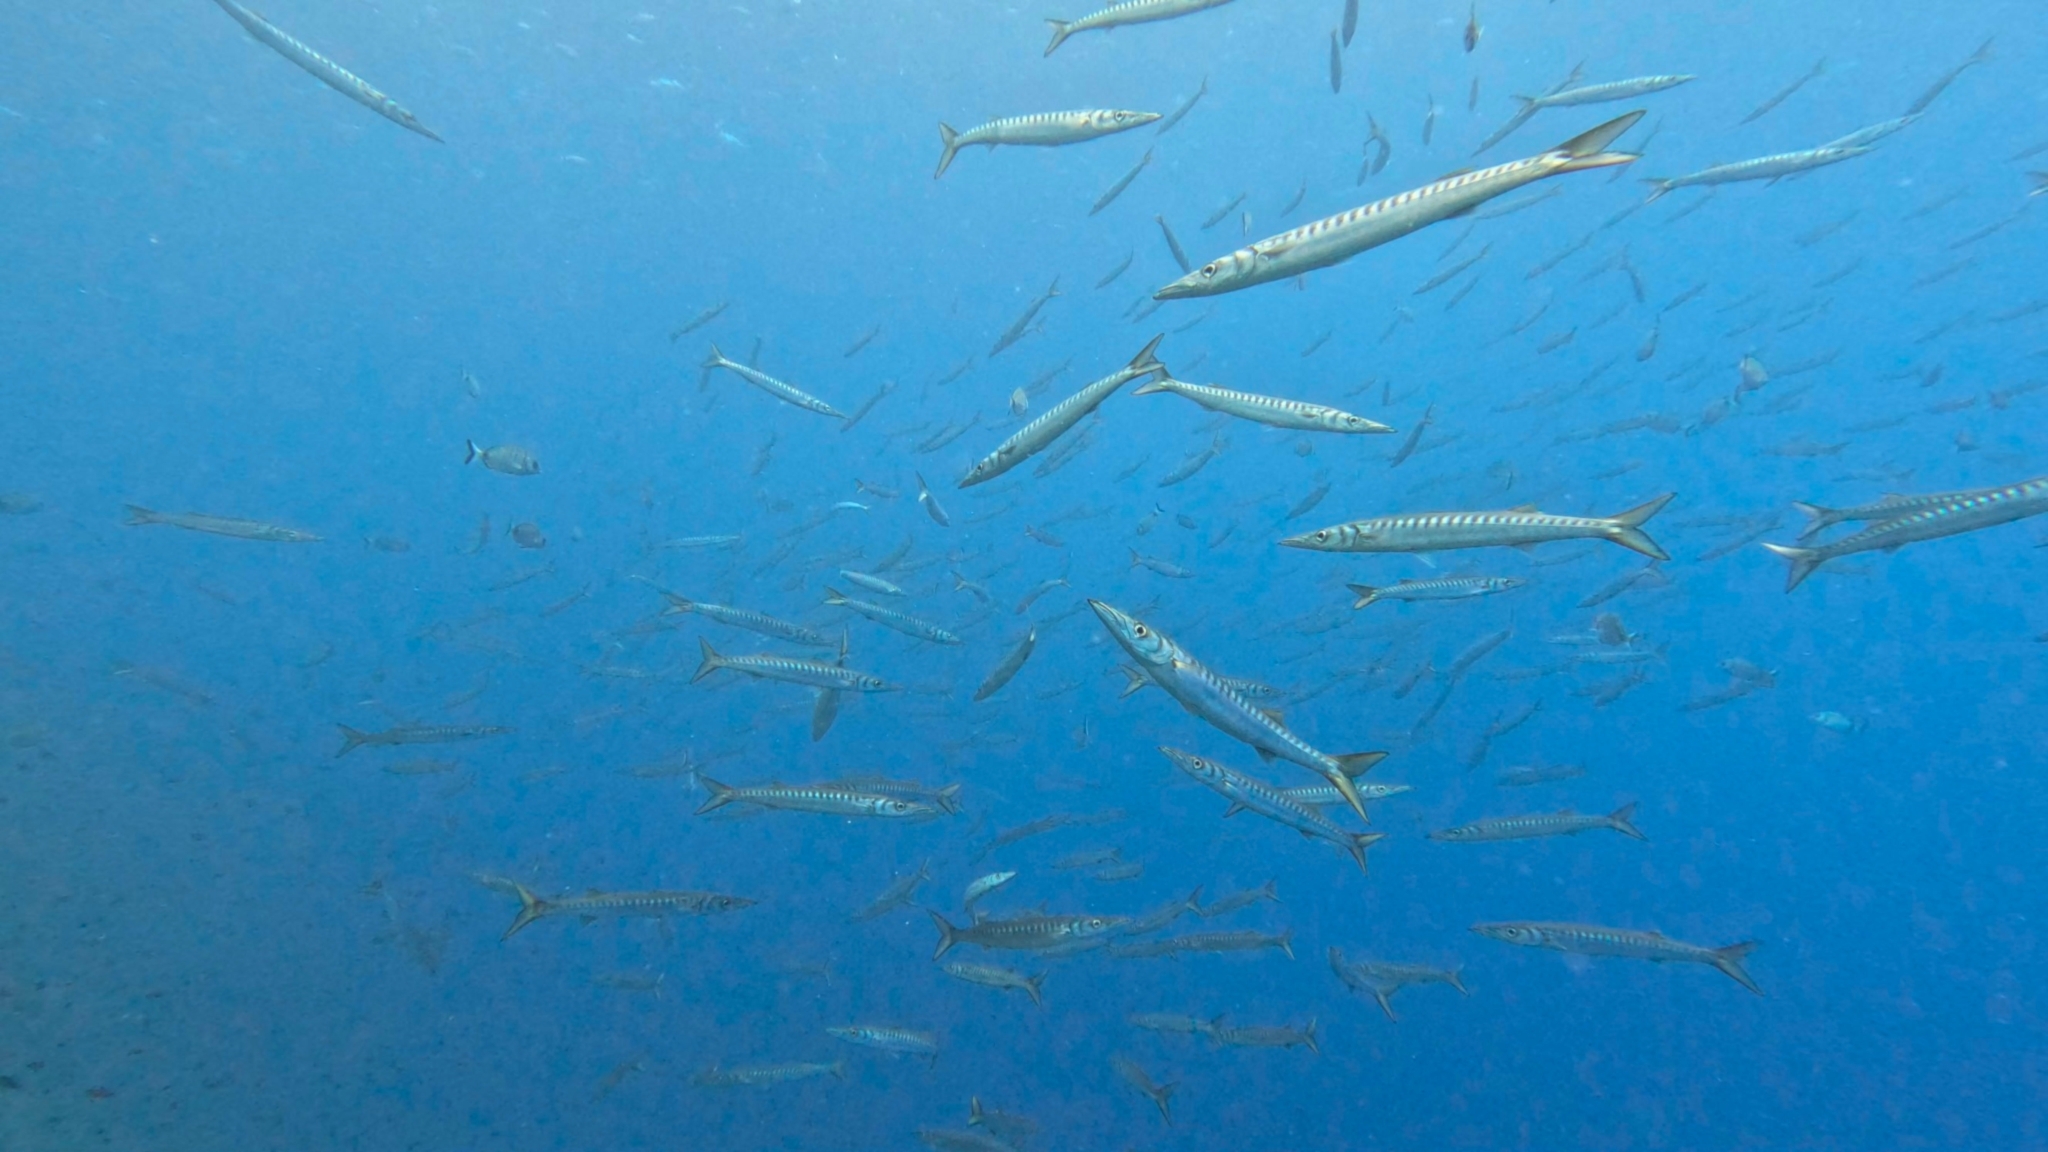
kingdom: Animalia
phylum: Chordata
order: Perciformes
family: Sphyraenidae
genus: Sphyraena
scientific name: Sphyraena viridensis
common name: Yellowmouth barracuda
